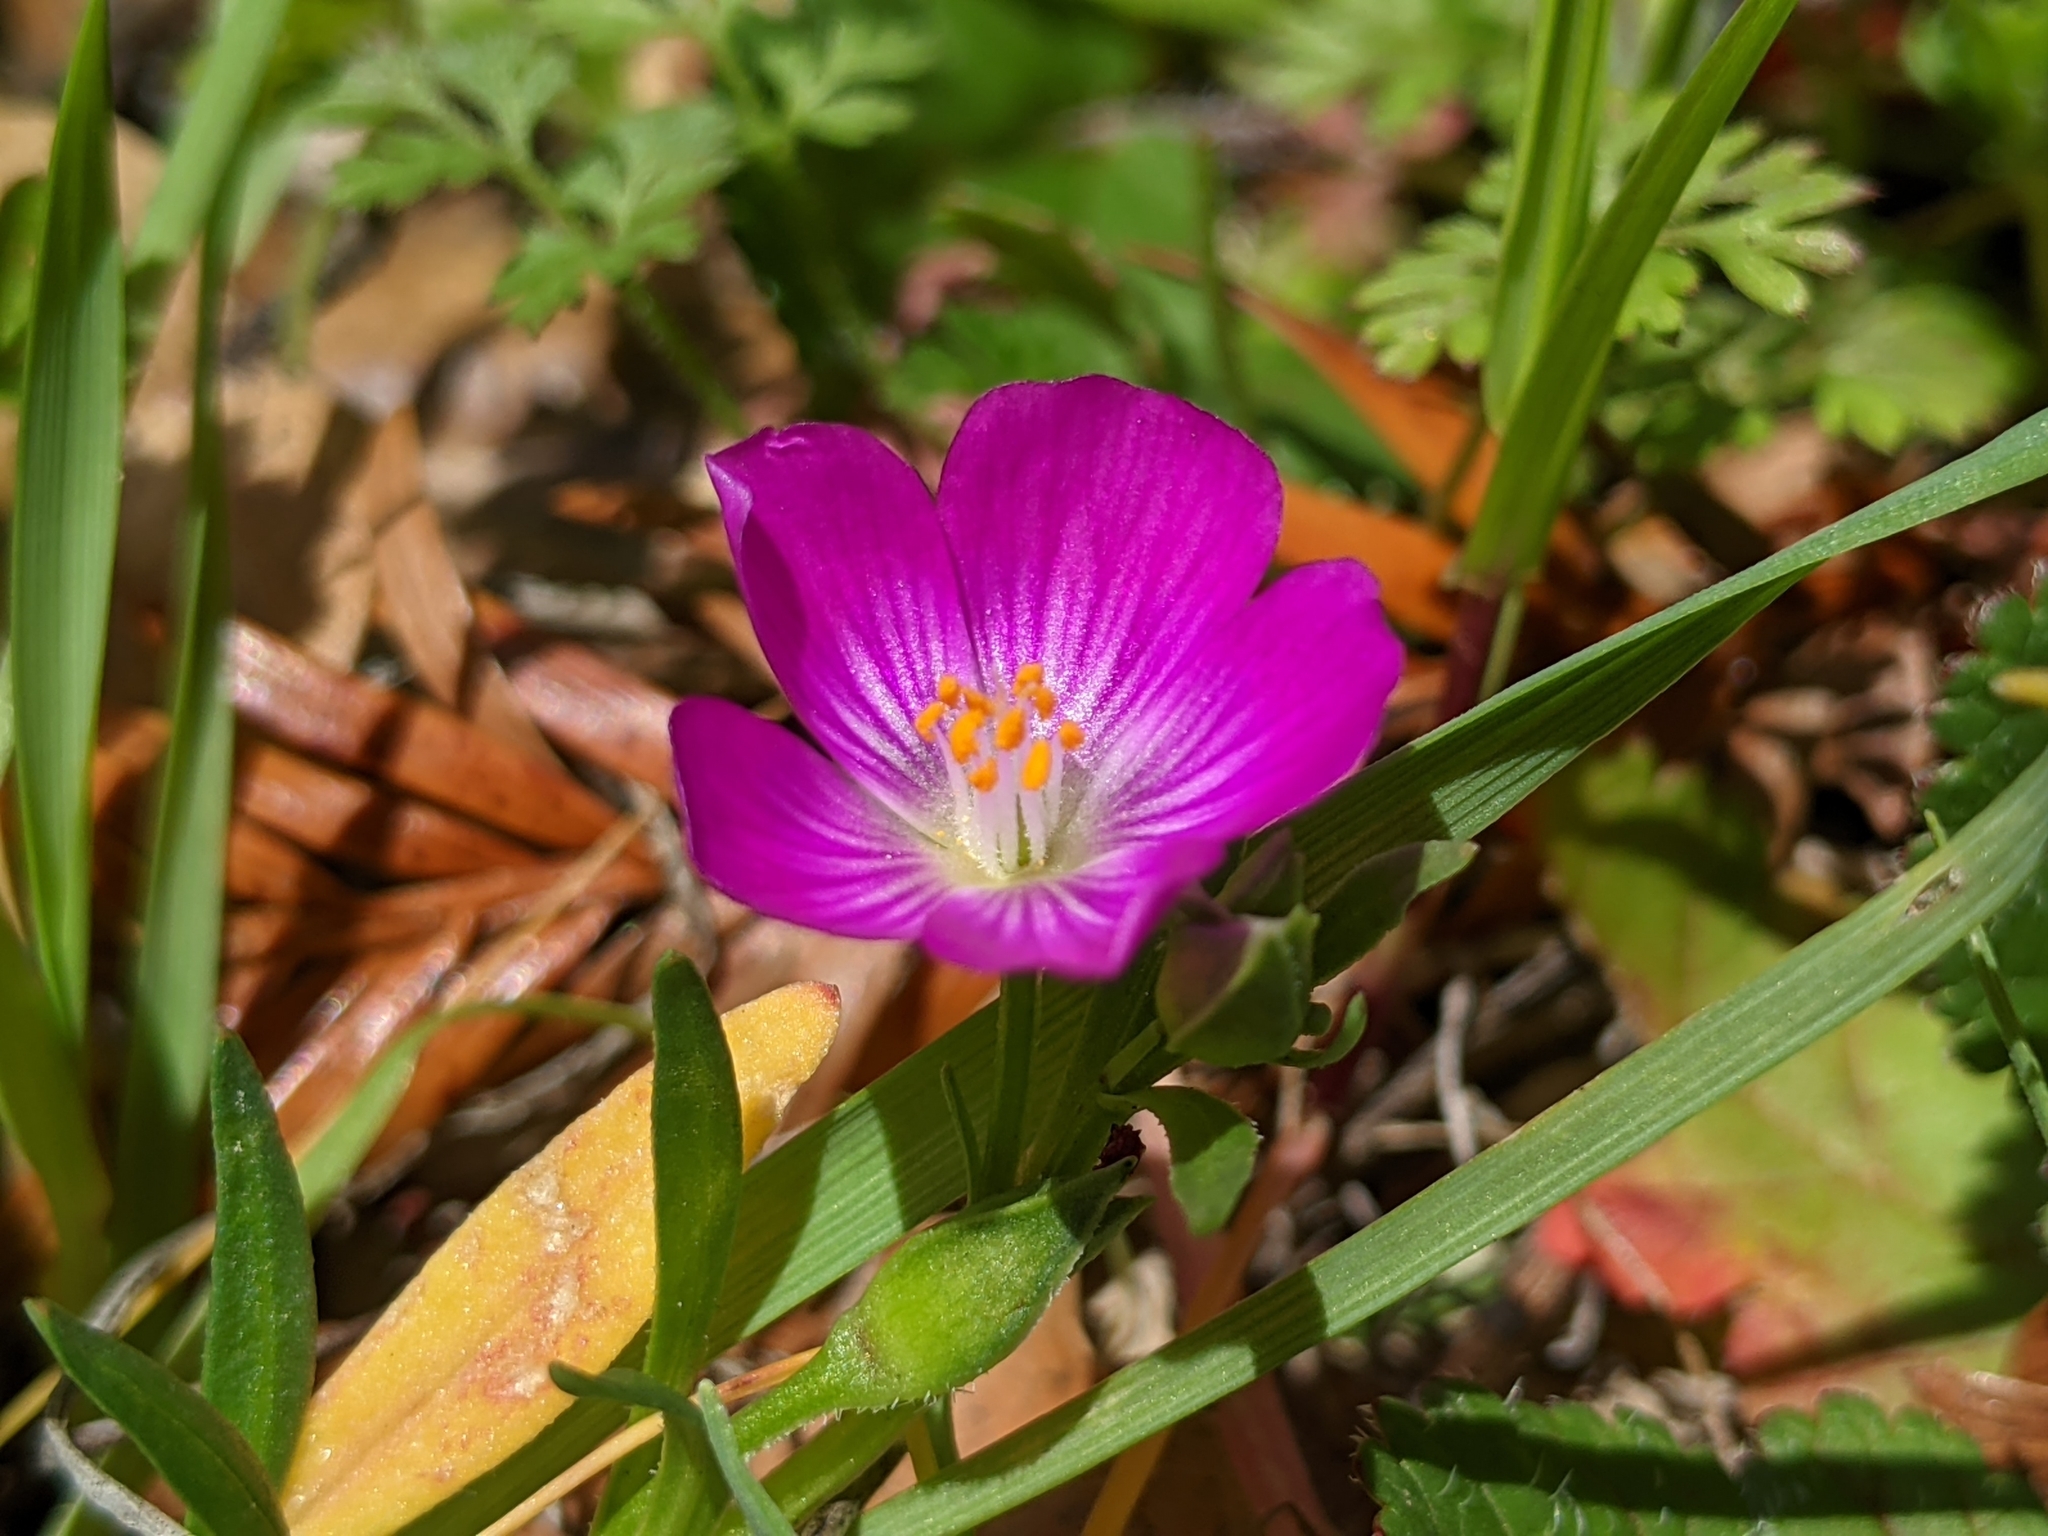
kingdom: Plantae
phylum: Tracheophyta
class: Magnoliopsida
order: Caryophyllales
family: Montiaceae
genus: Calandrinia
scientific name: Calandrinia menziesii
